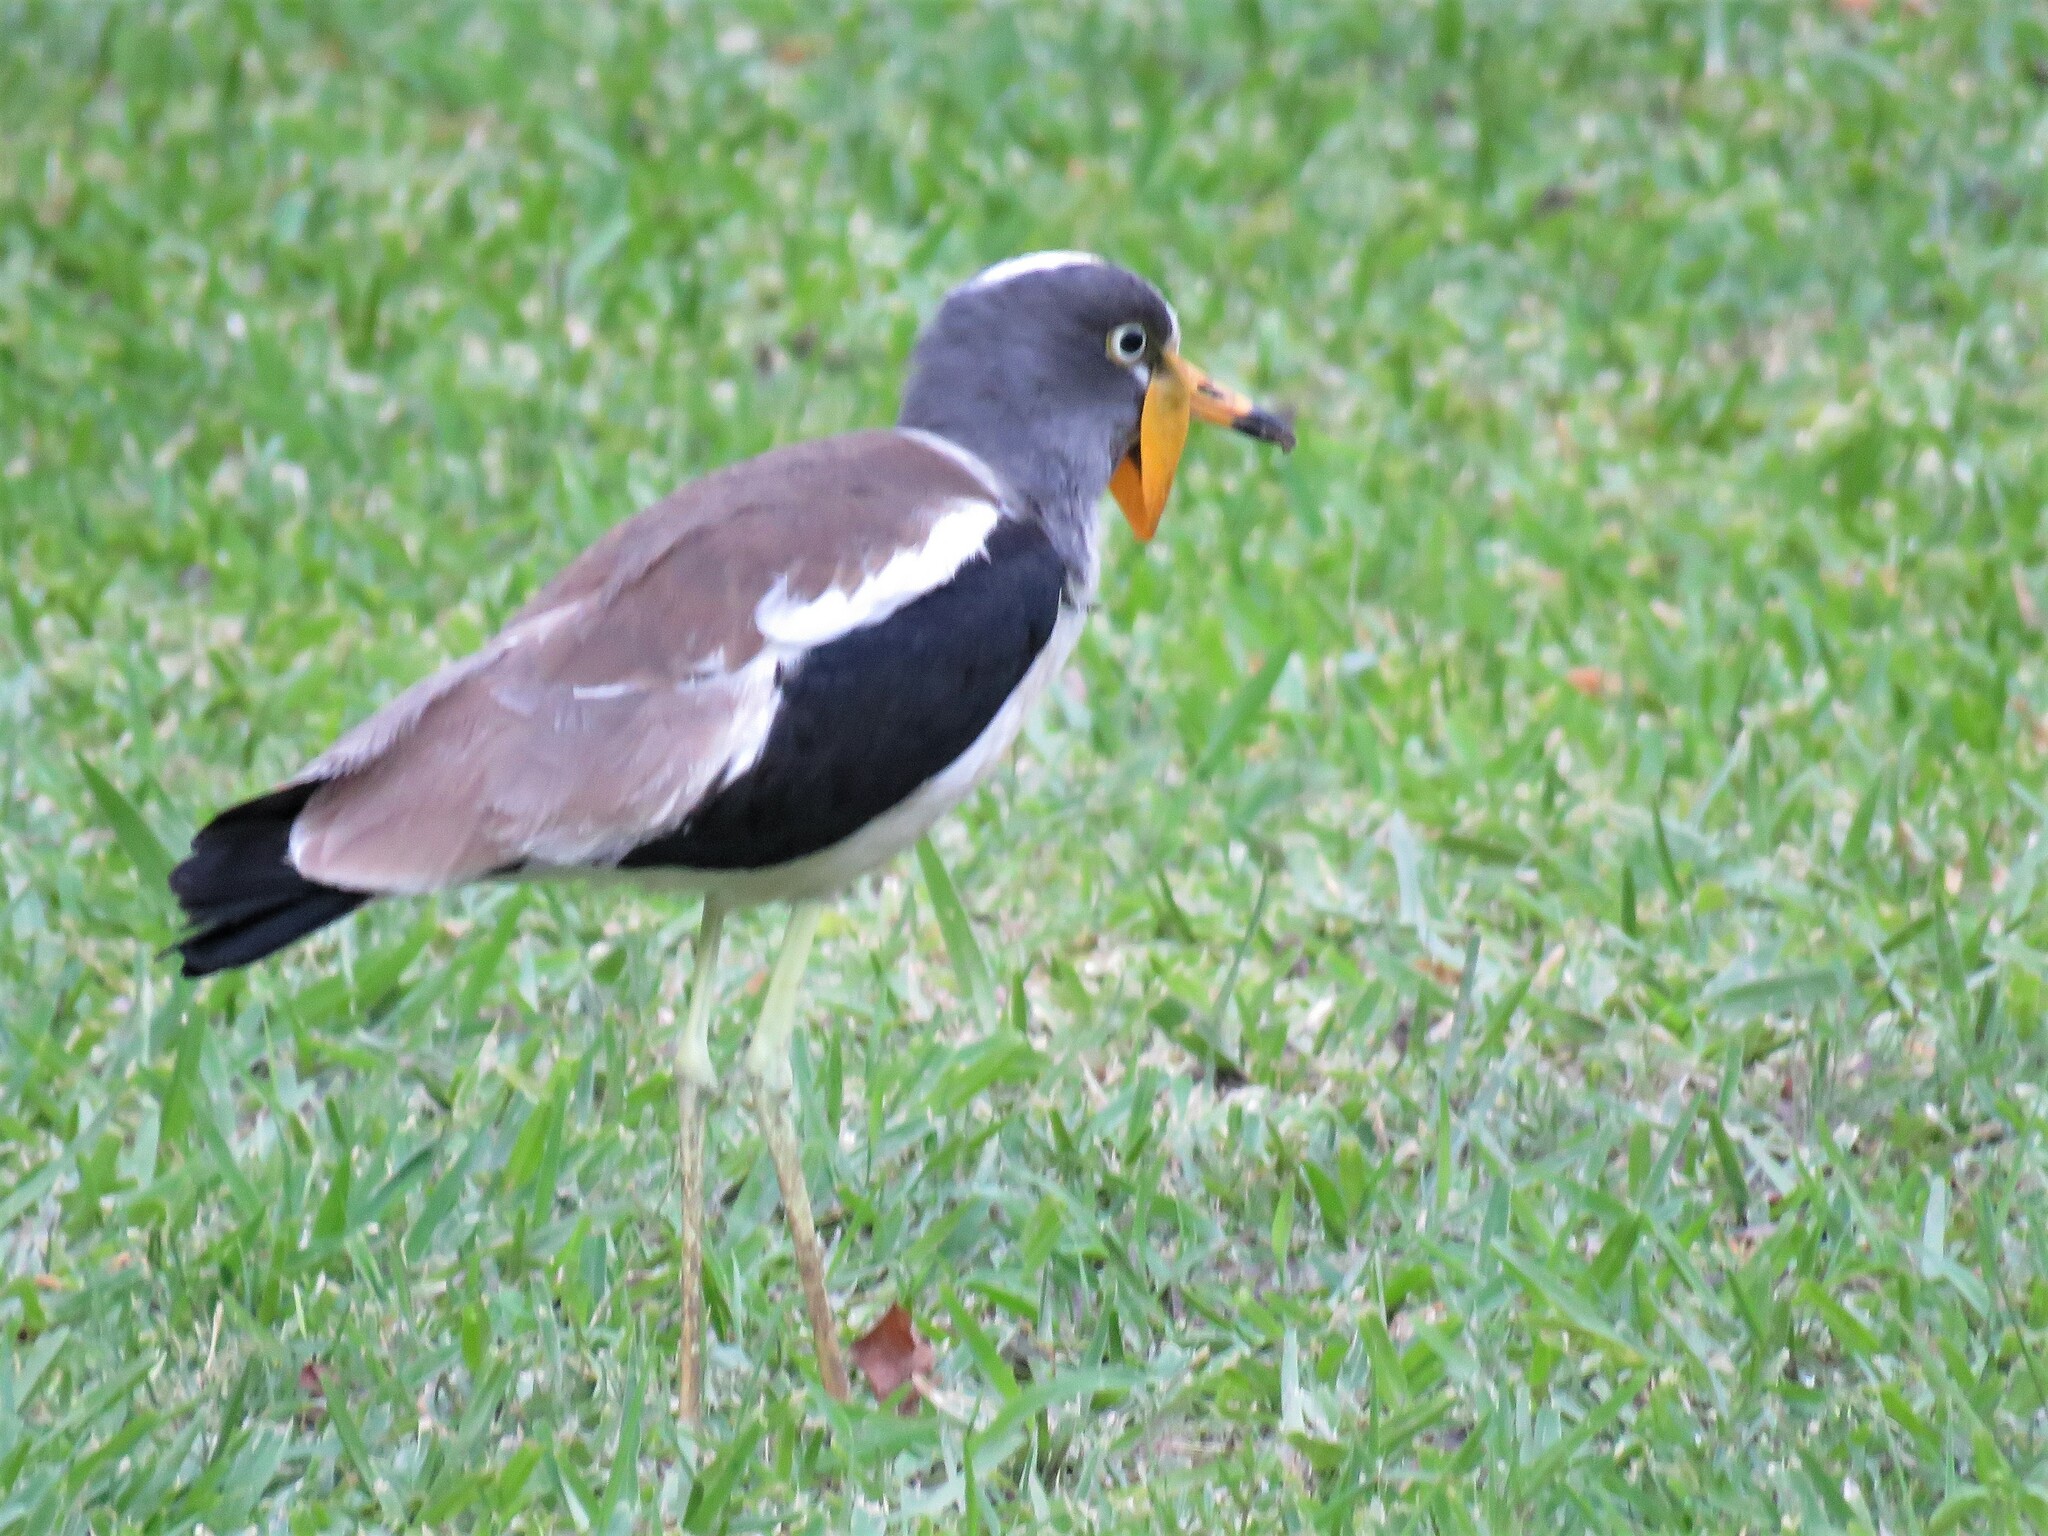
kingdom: Animalia
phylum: Chordata
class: Aves
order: Charadriiformes
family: Charadriidae
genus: Vanellus
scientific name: Vanellus albiceps
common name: White-crowned lapwing
